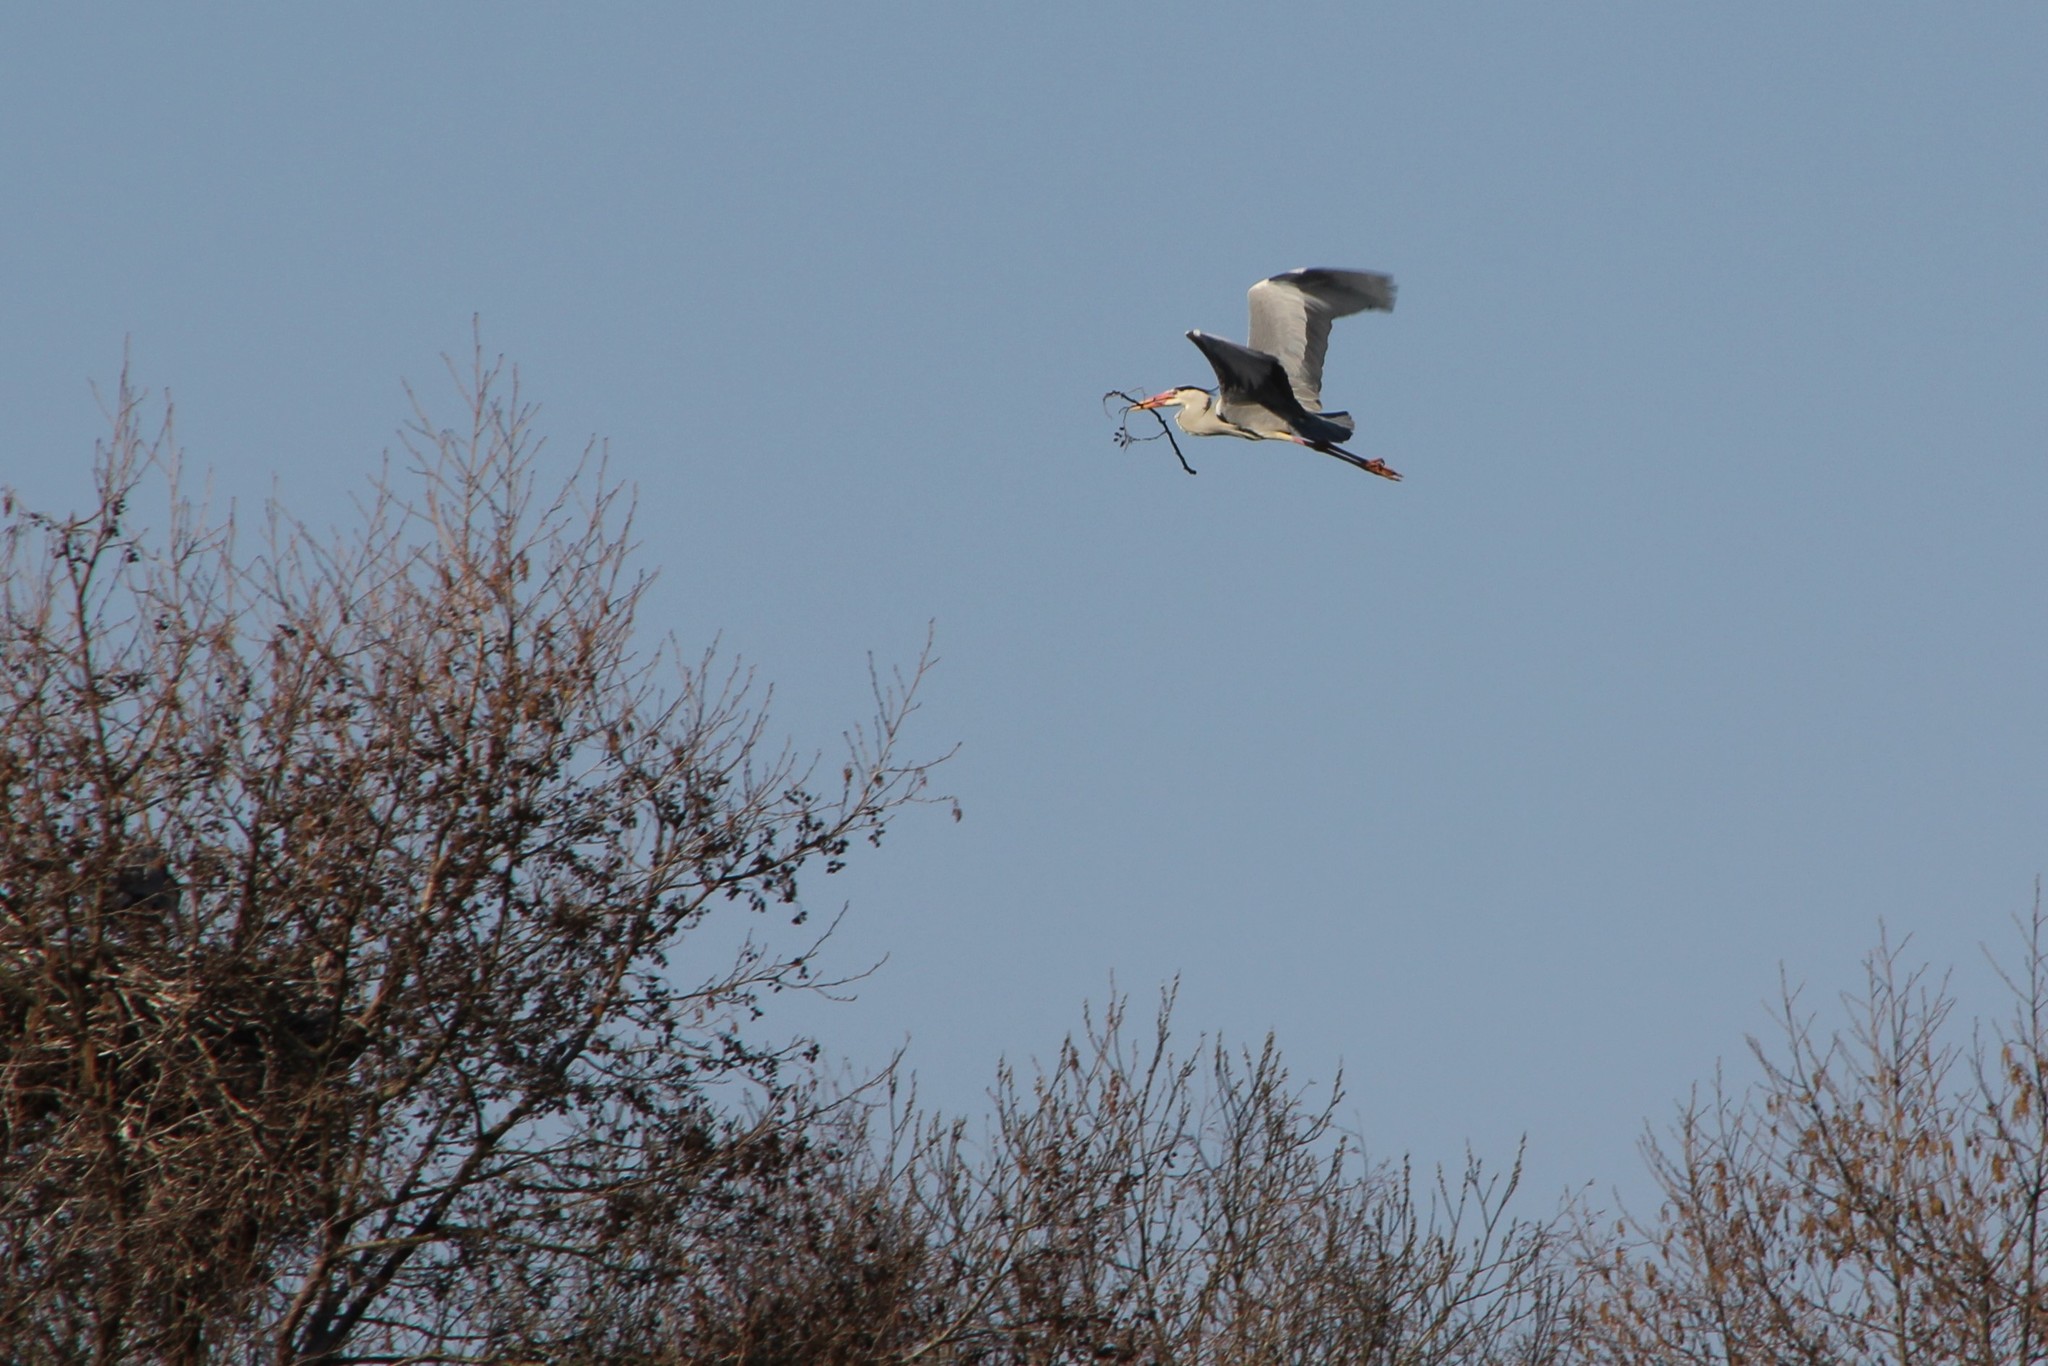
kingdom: Animalia
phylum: Chordata
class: Aves
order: Pelecaniformes
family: Ardeidae
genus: Ardea
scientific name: Ardea cinerea
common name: Grey heron
